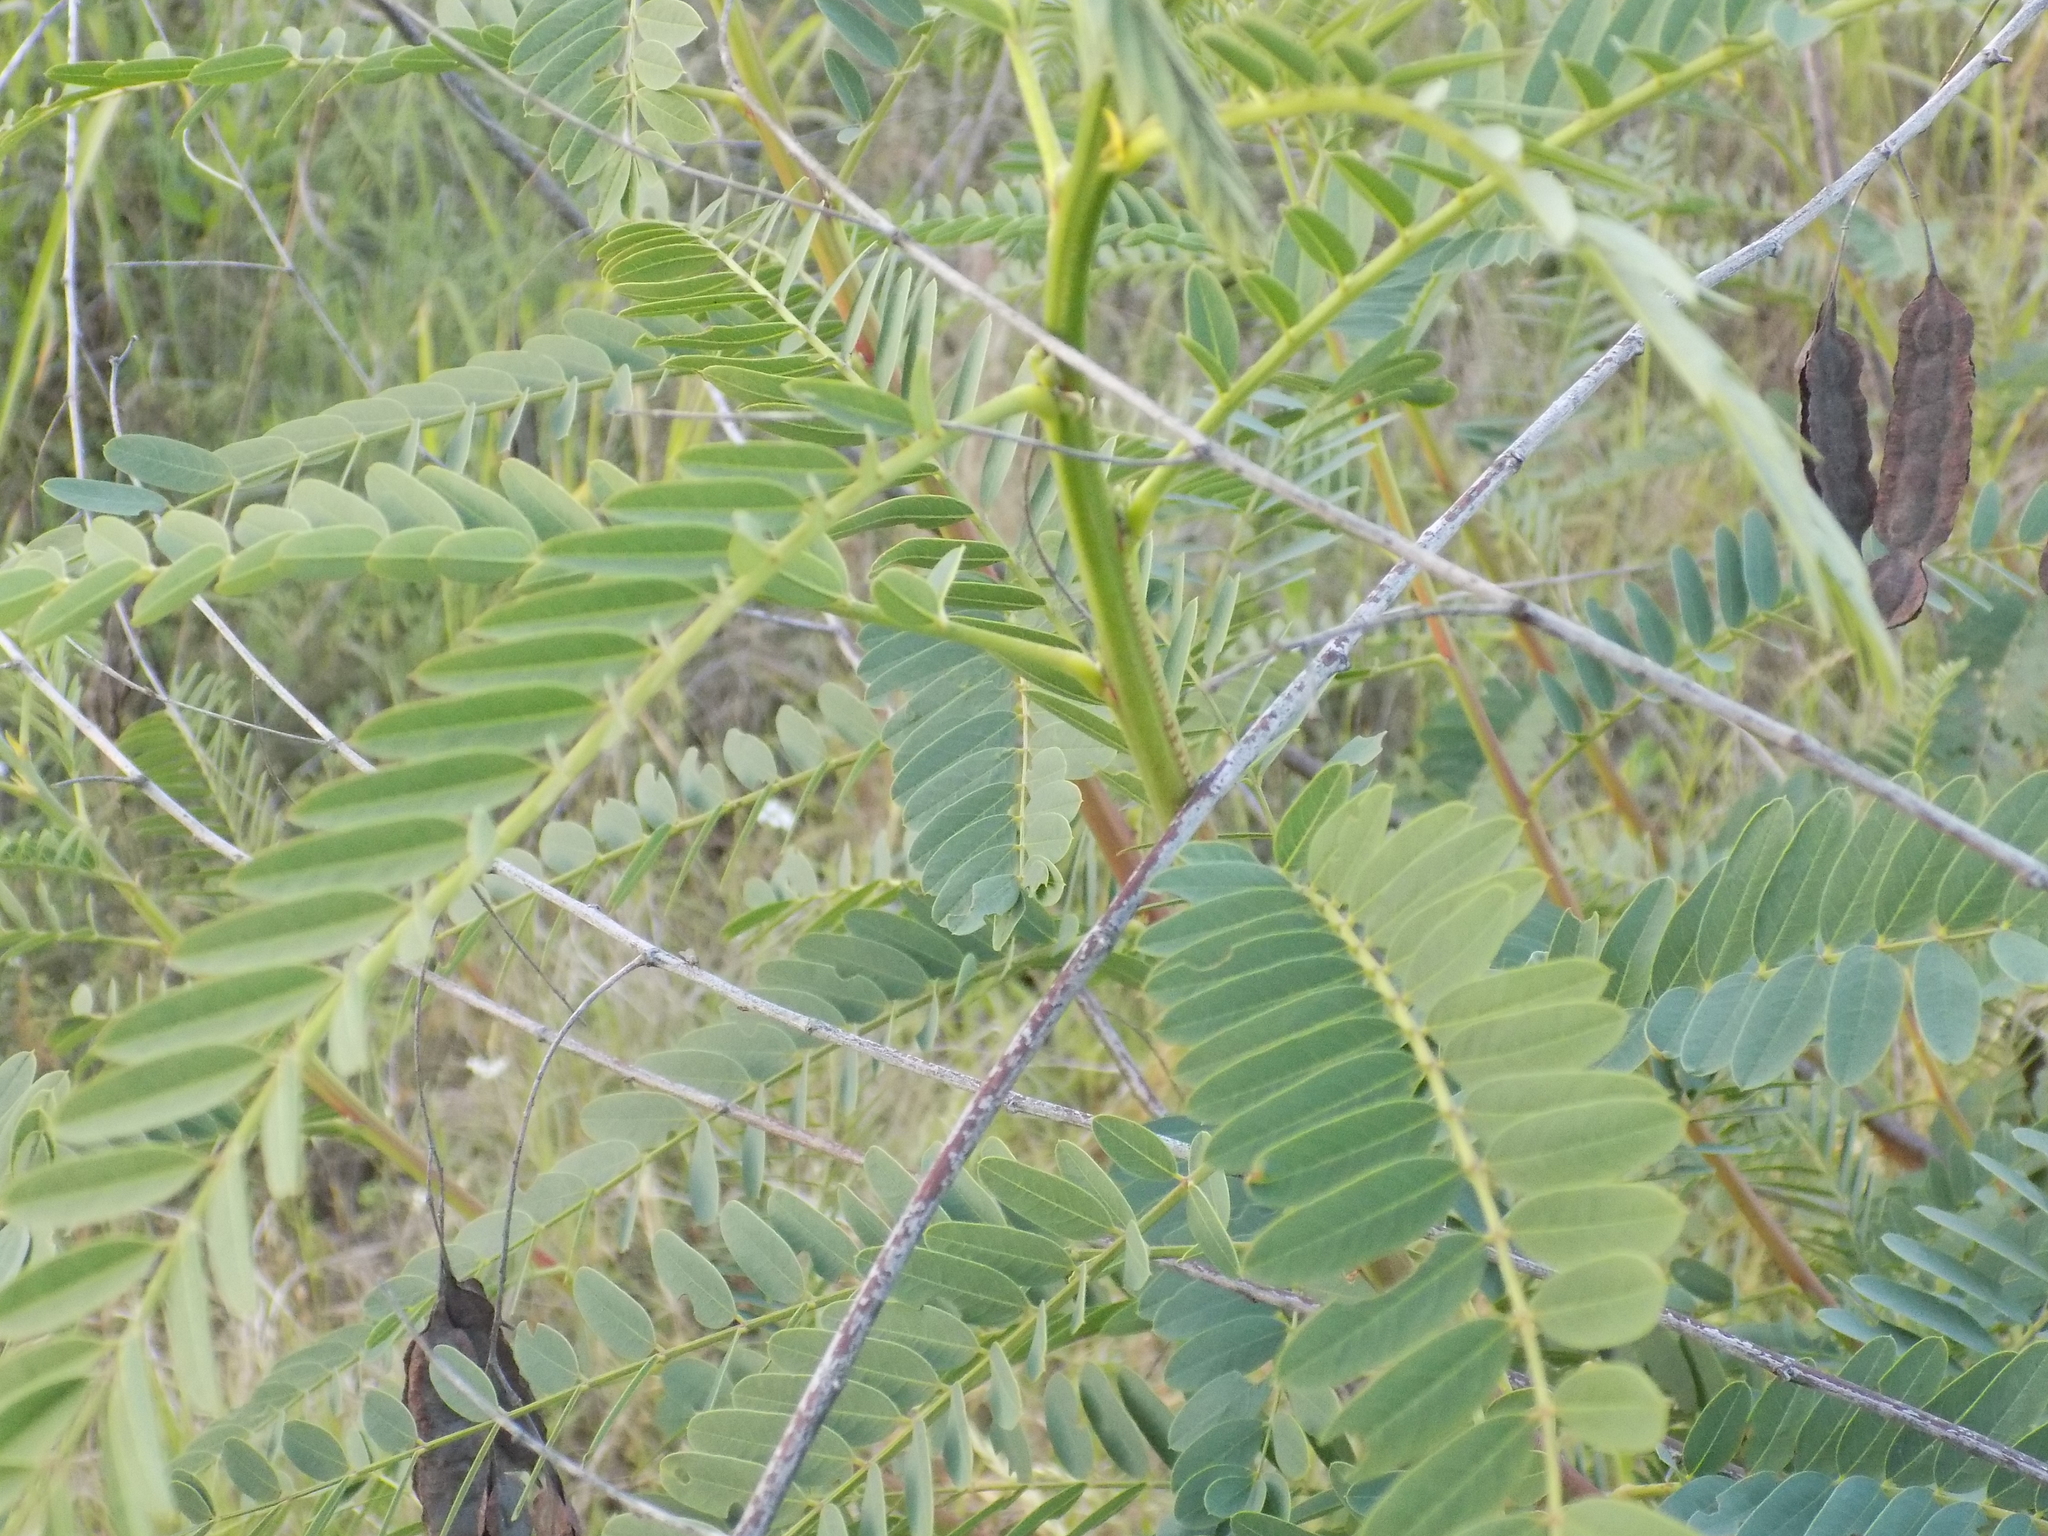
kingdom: Plantae
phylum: Tracheophyta
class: Magnoliopsida
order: Fabales
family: Fabaceae
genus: Sesbania
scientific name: Sesbania drummondii
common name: Poison-bean
